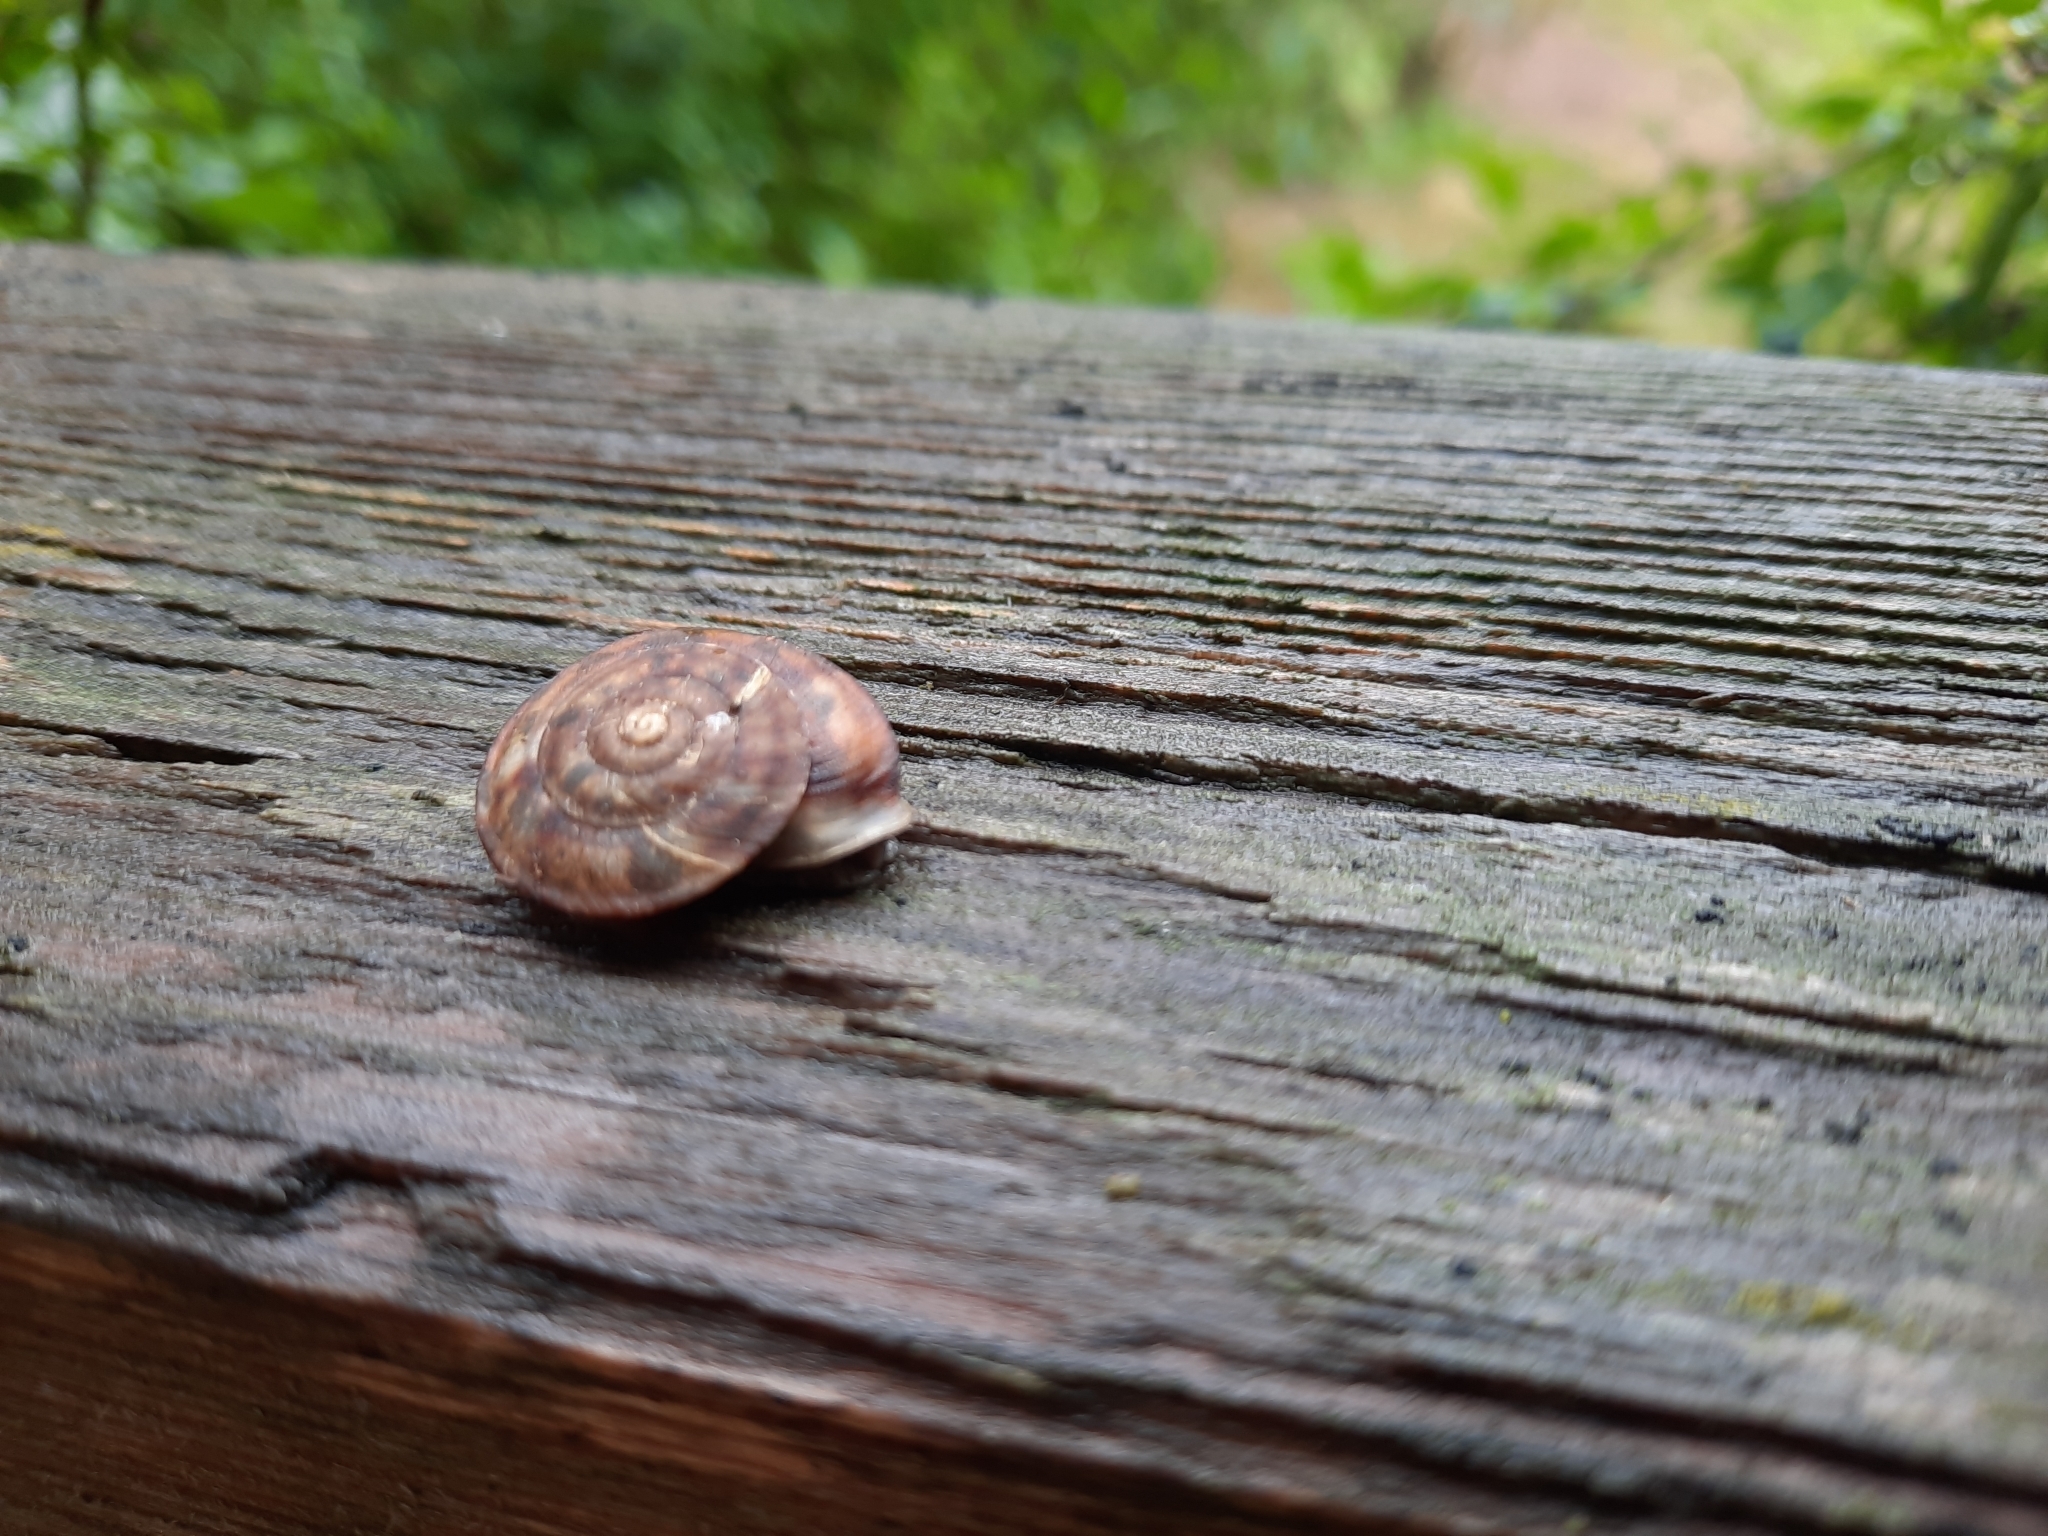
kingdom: Animalia
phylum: Mollusca
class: Gastropoda
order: Stylommatophora
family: Helicidae
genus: Helicigona
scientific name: Helicigona lapicida
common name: Lapidary snail
